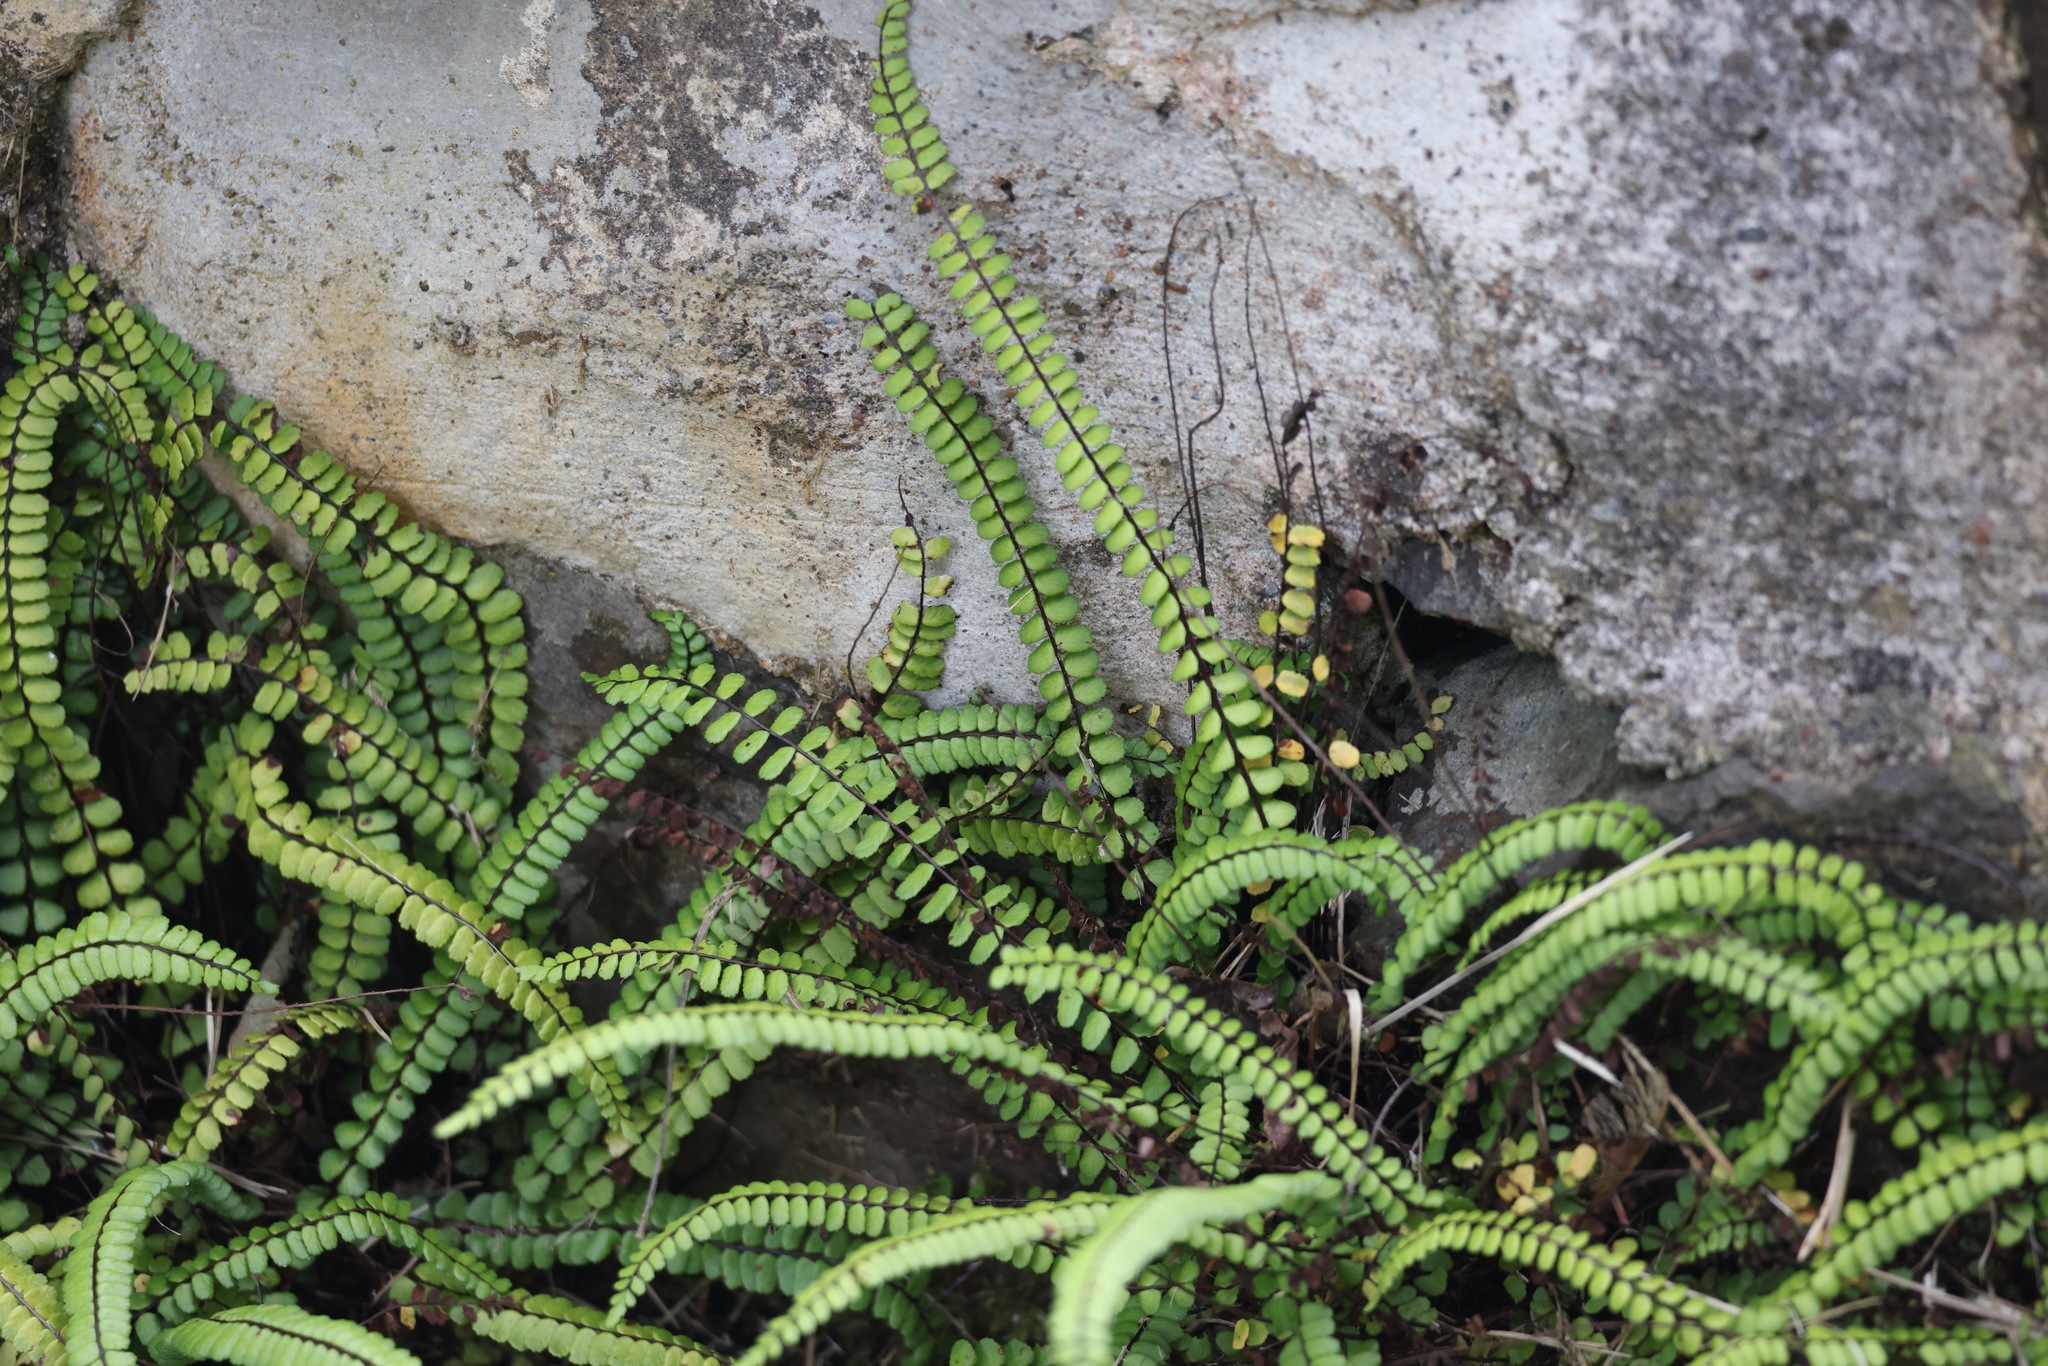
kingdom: Plantae
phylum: Tracheophyta
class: Polypodiopsida
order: Polypodiales
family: Aspleniaceae
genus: Asplenium
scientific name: Asplenium trichomanes
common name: Maidenhair spleenwort
